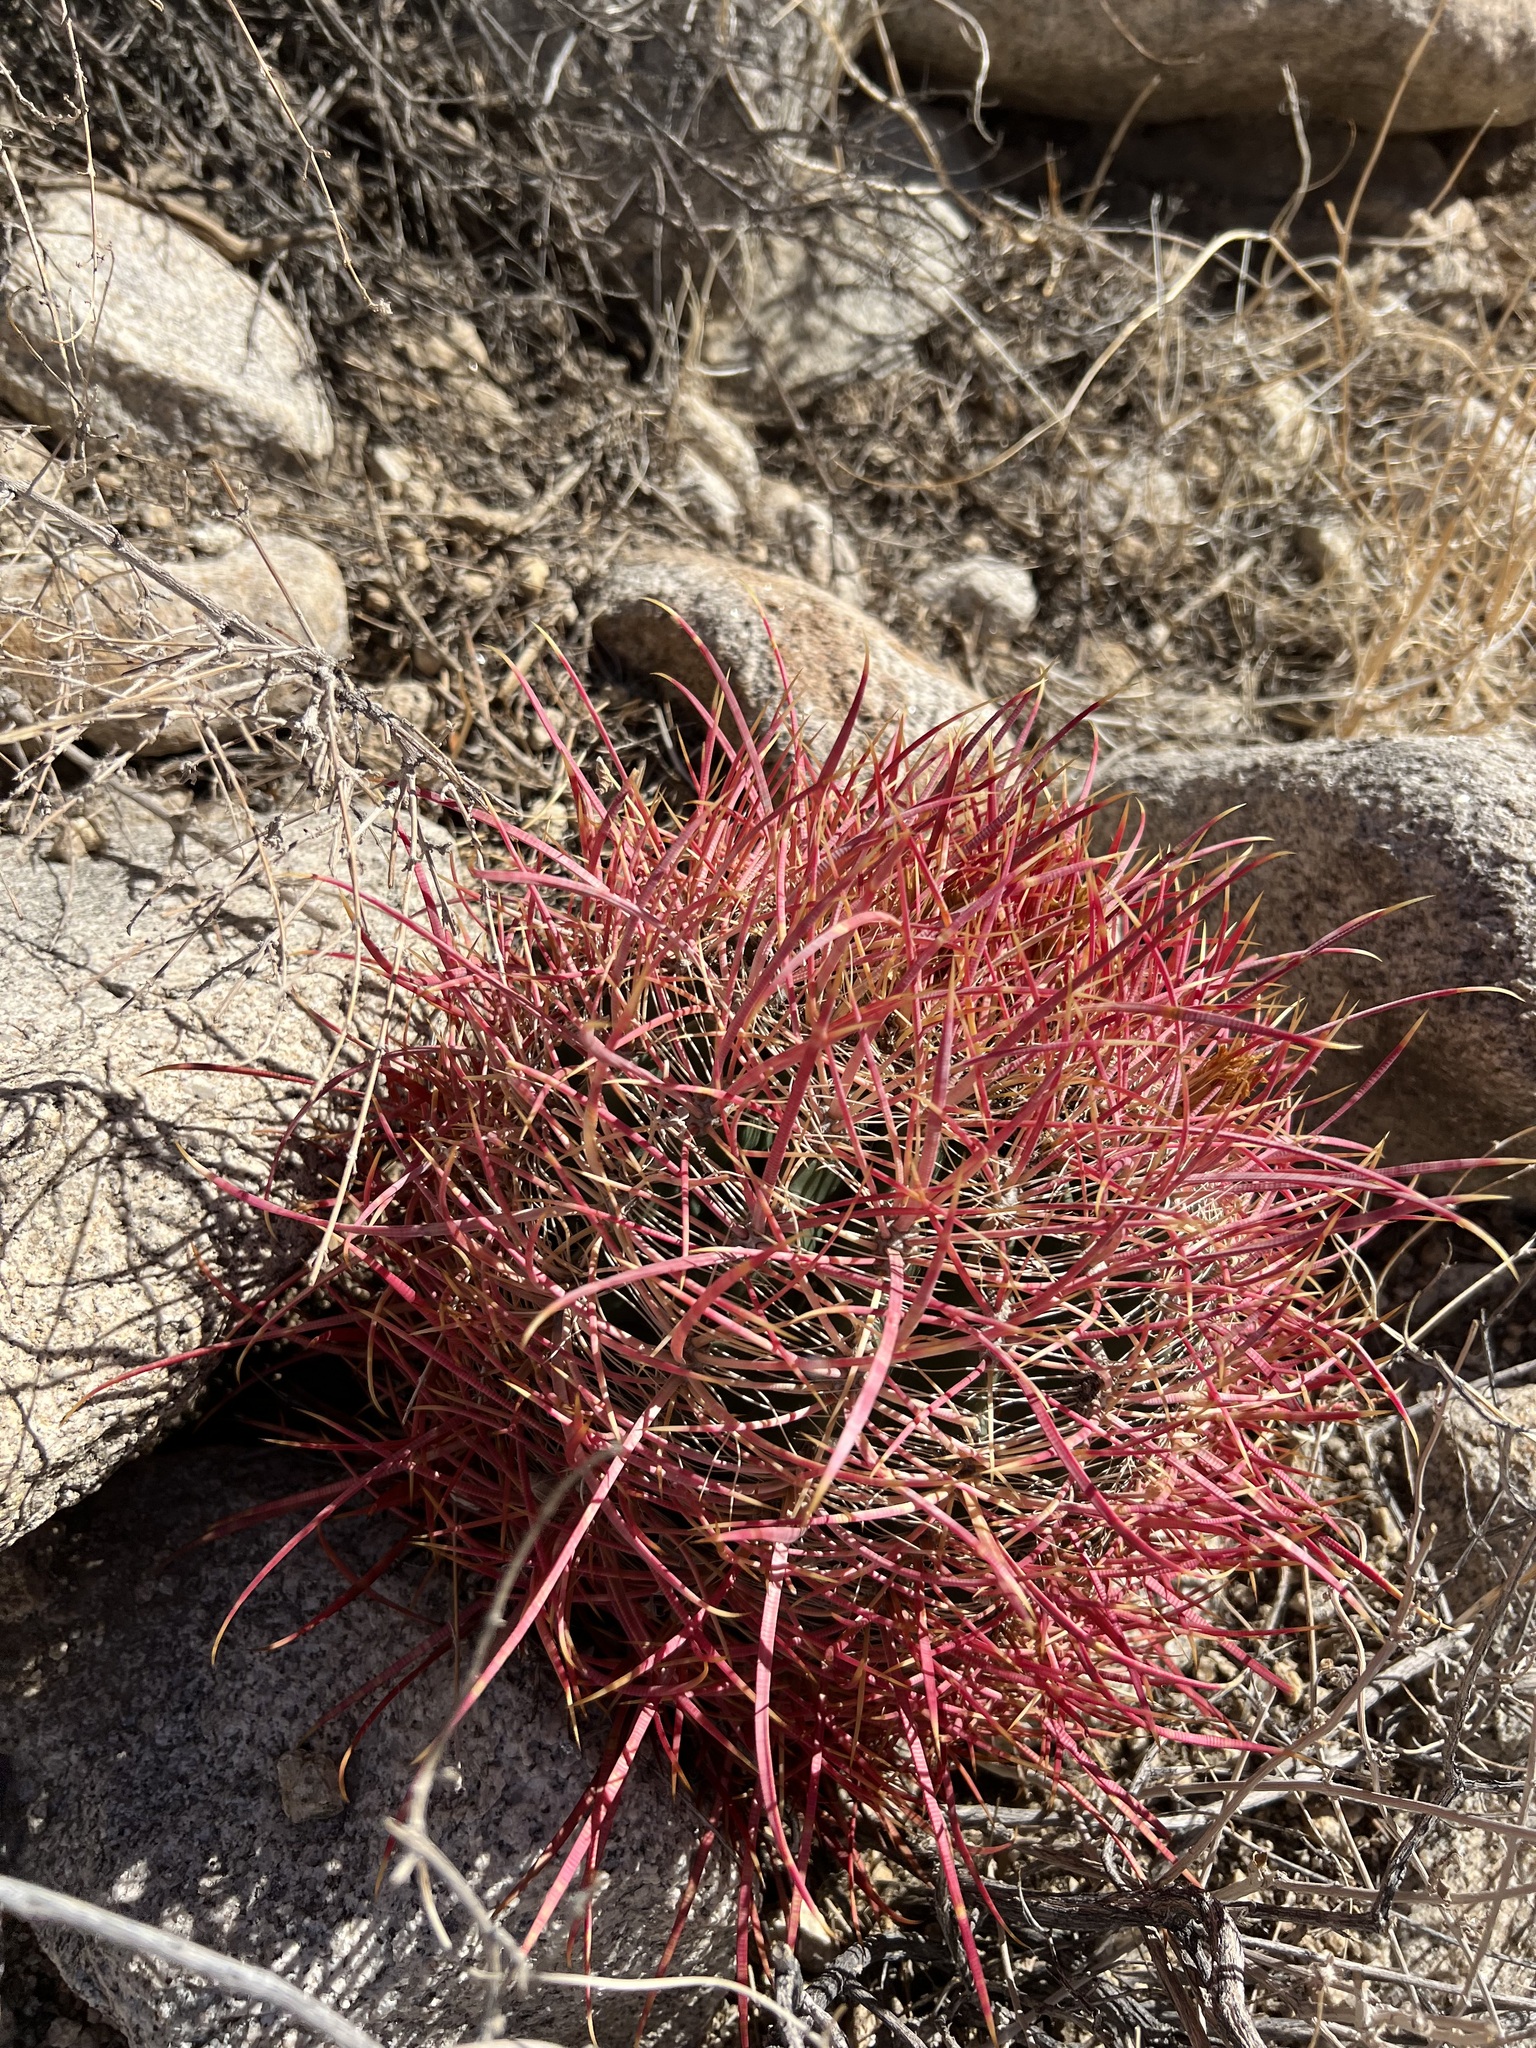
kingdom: Plantae
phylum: Tracheophyta
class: Magnoliopsida
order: Caryophyllales
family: Cactaceae
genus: Ferocactus
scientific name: Ferocactus cylindraceus
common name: California barrel cactus
